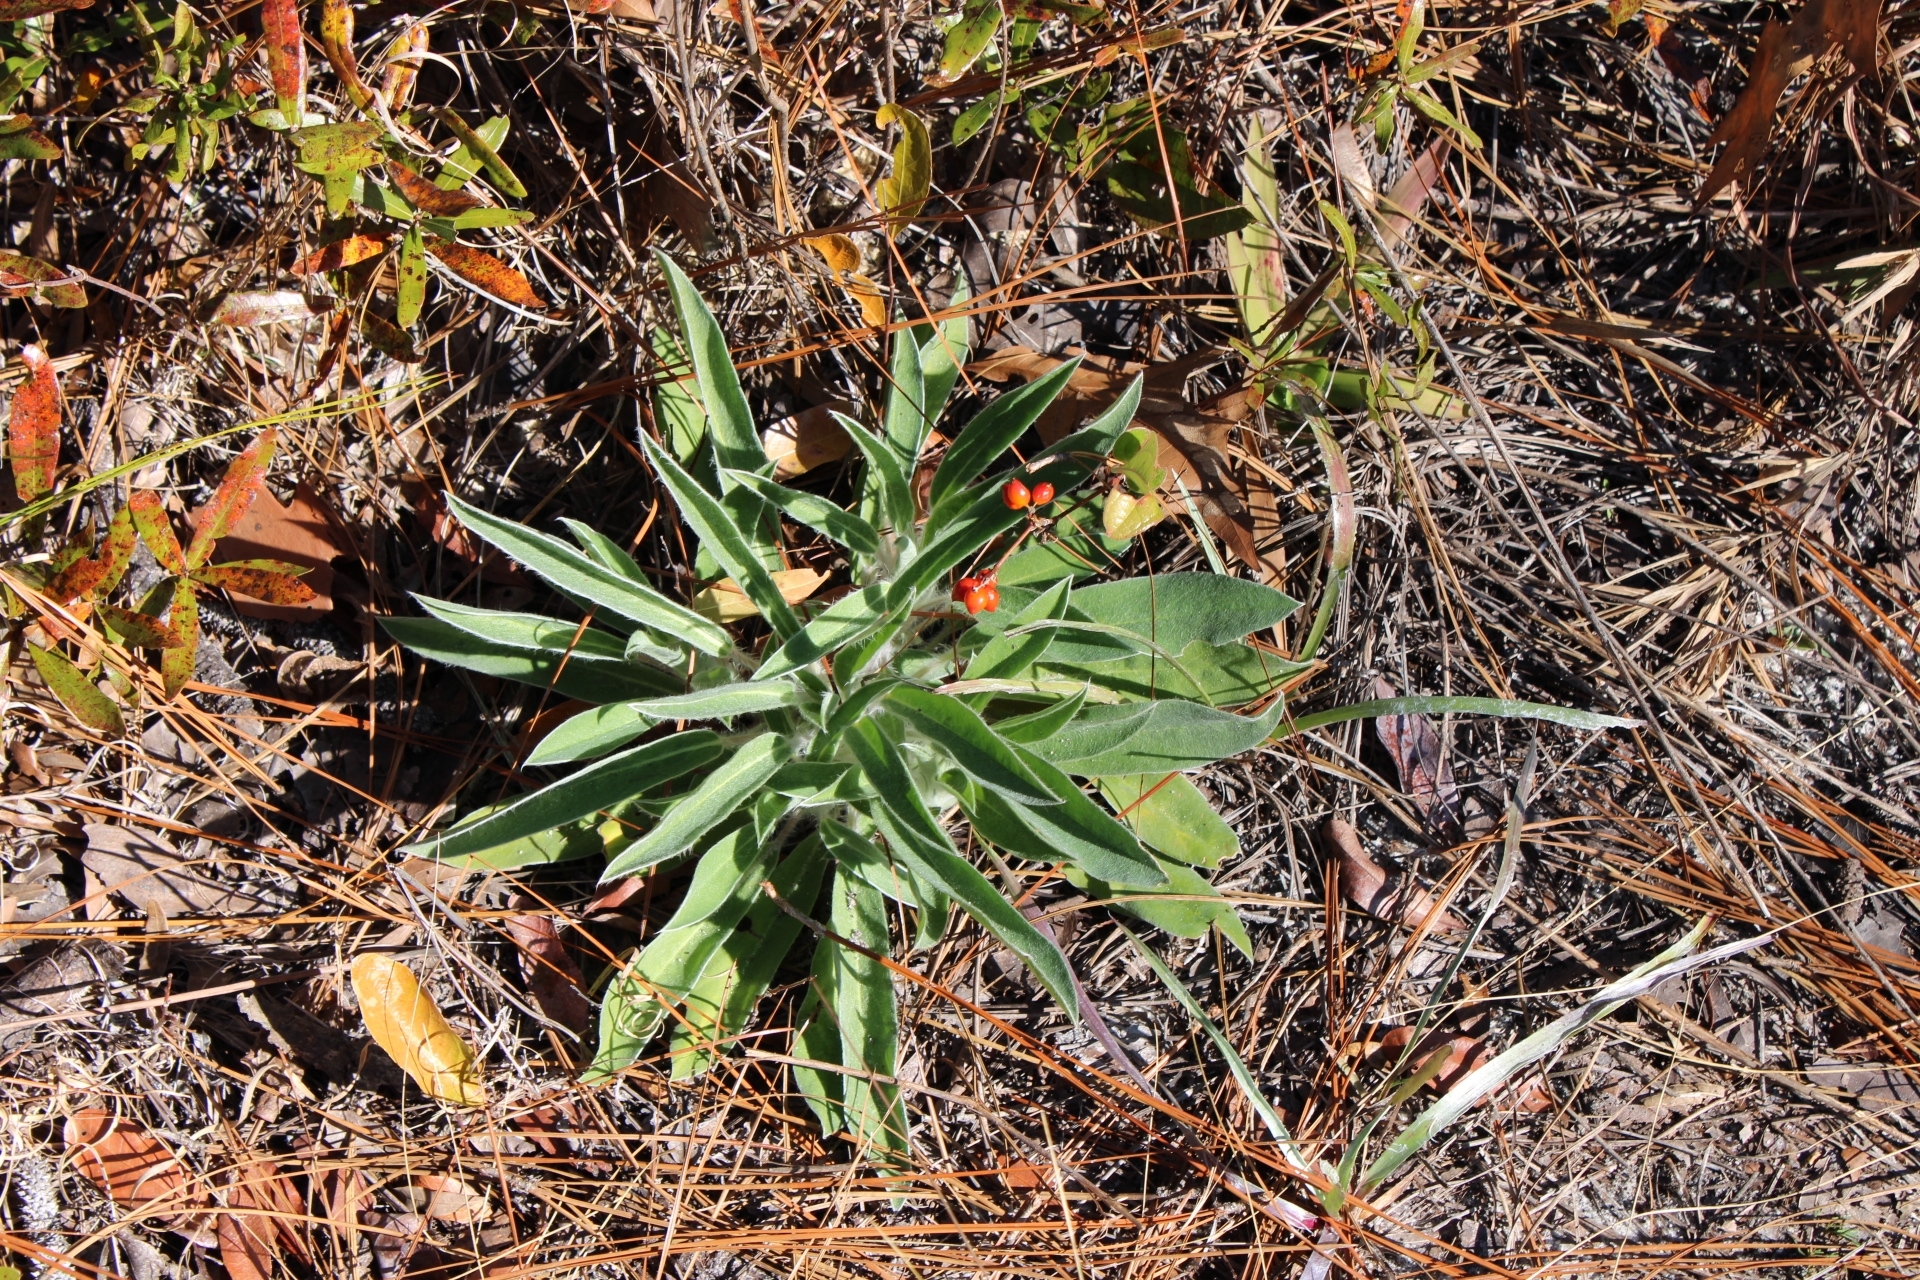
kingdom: Plantae
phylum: Tracheophyta
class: Magnoliopsida
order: Fabales
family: Fabaceae
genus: Lupinus
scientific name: Lupinus villosus
